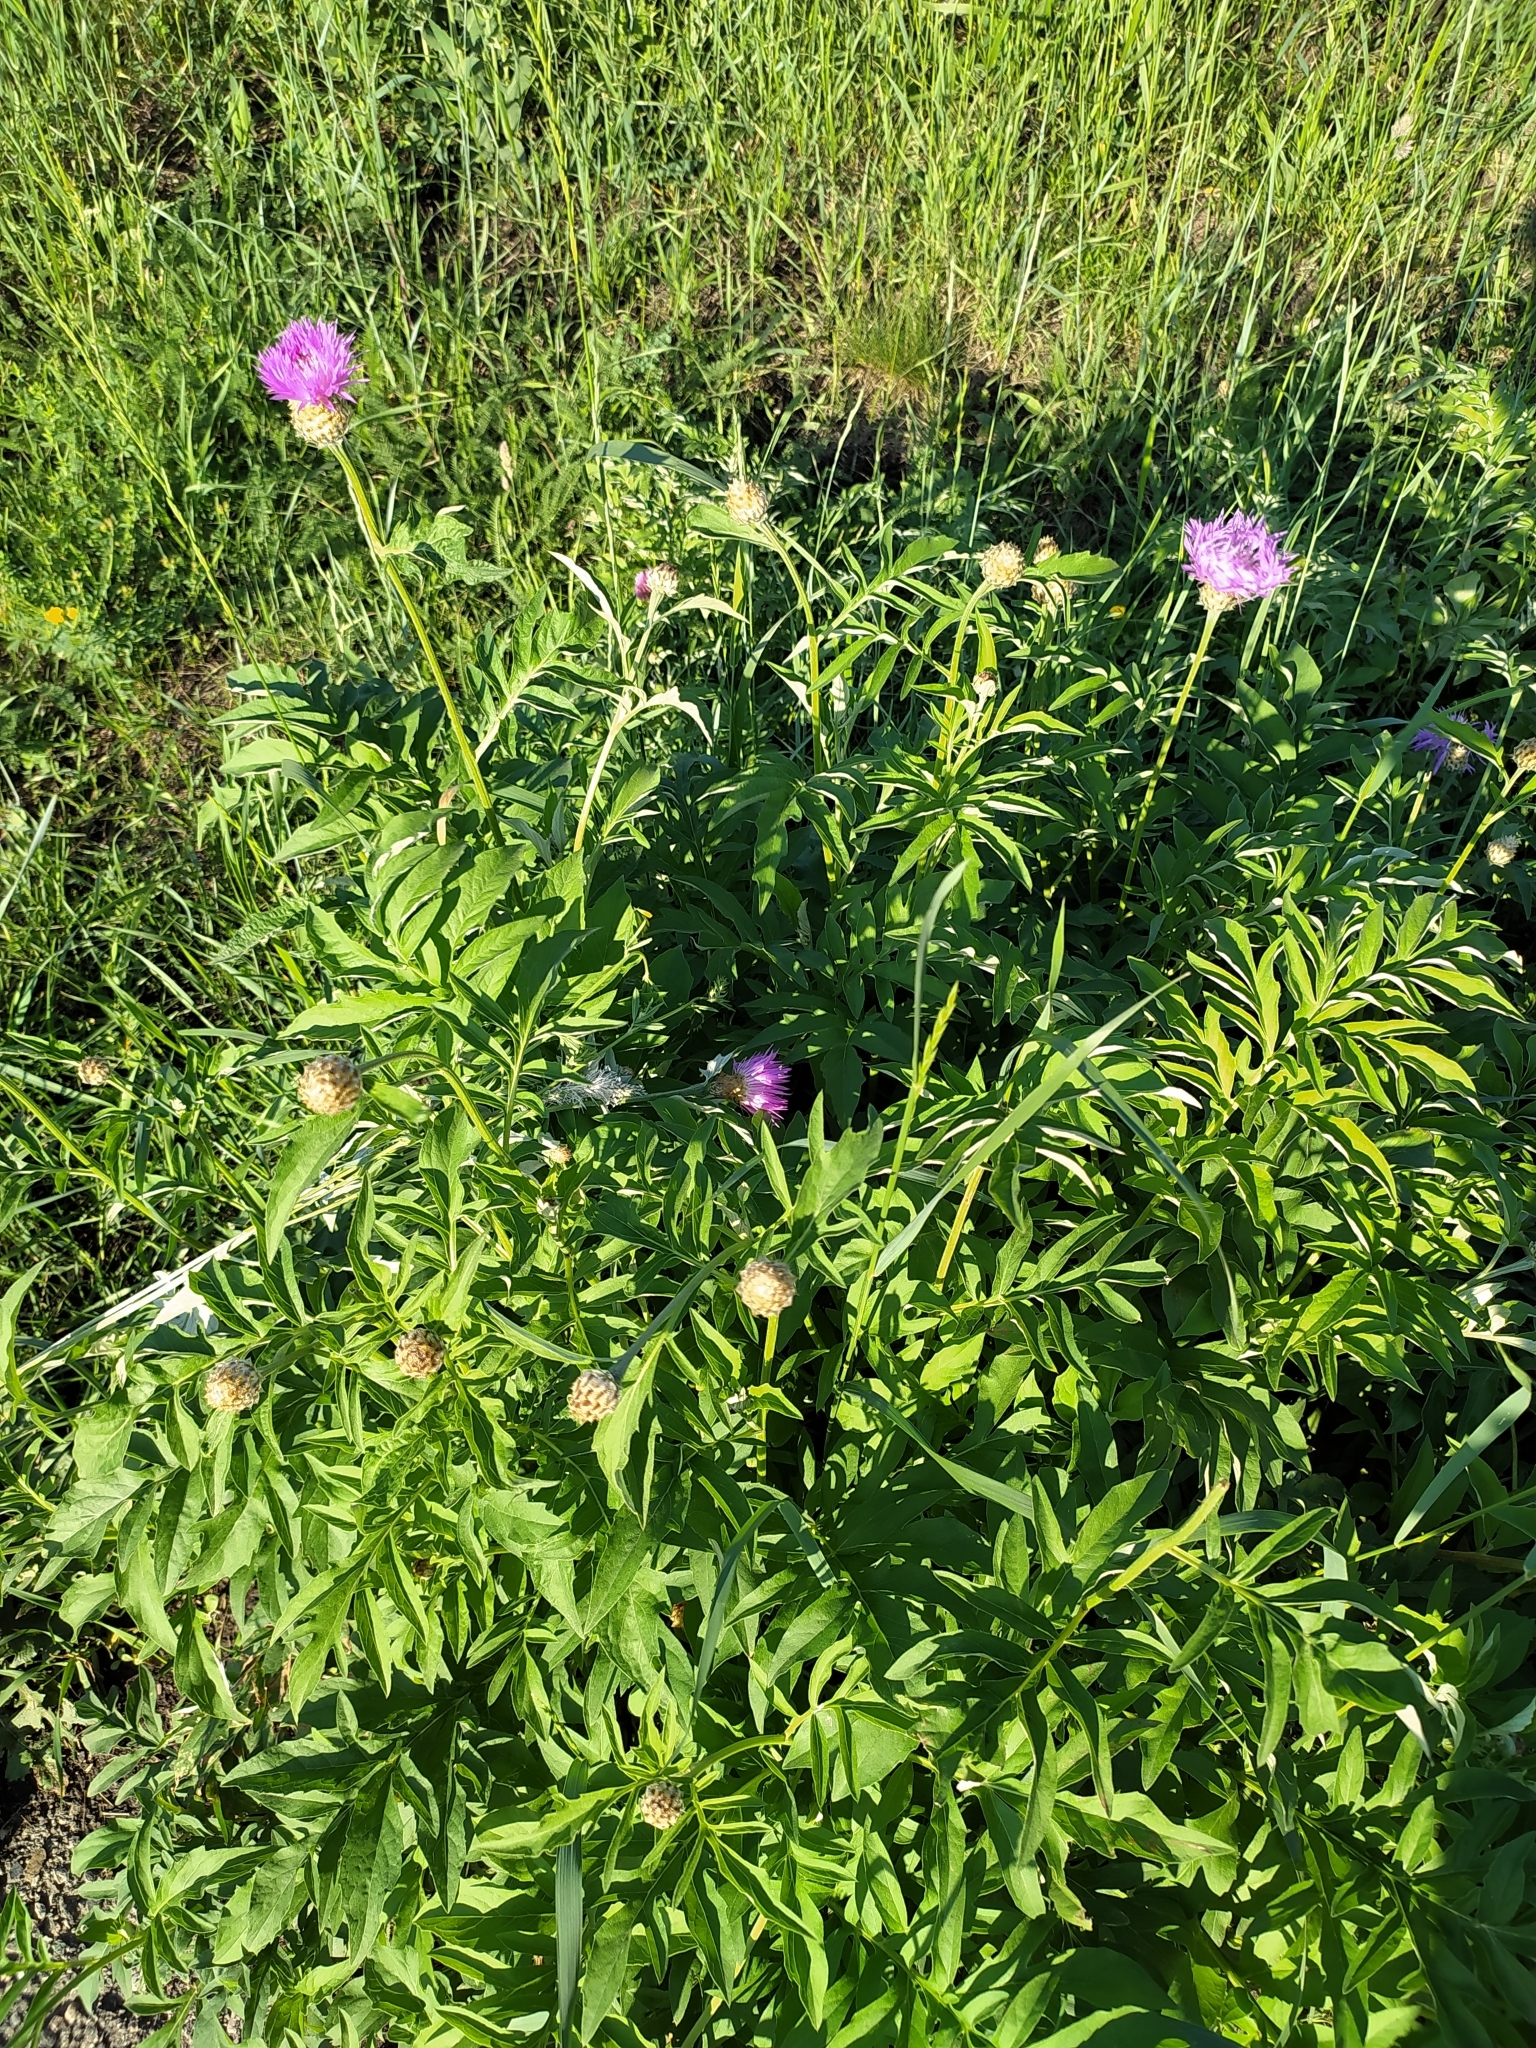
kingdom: Plantae
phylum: Tracheophyta
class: Magnoliopsida
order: Asterales
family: Asteraceae
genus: Psephellus
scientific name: Psephellus dealbatus
